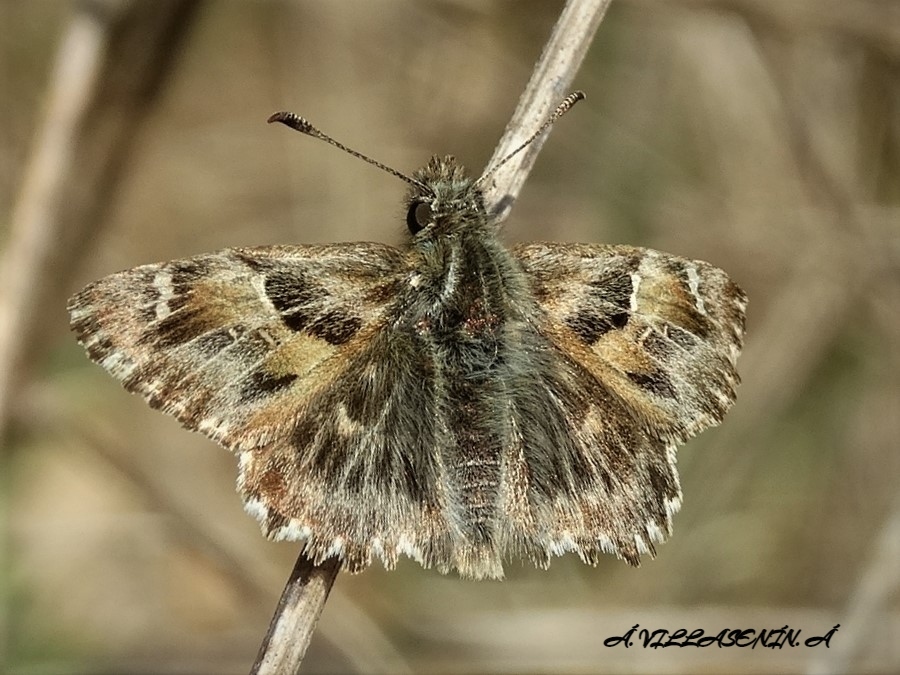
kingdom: Animalia
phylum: Arthropoda
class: Insecta
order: Lepidoptera
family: Hesperiidae
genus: Carcharodus
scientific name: Carcharodus alceae
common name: Mallow skipper
